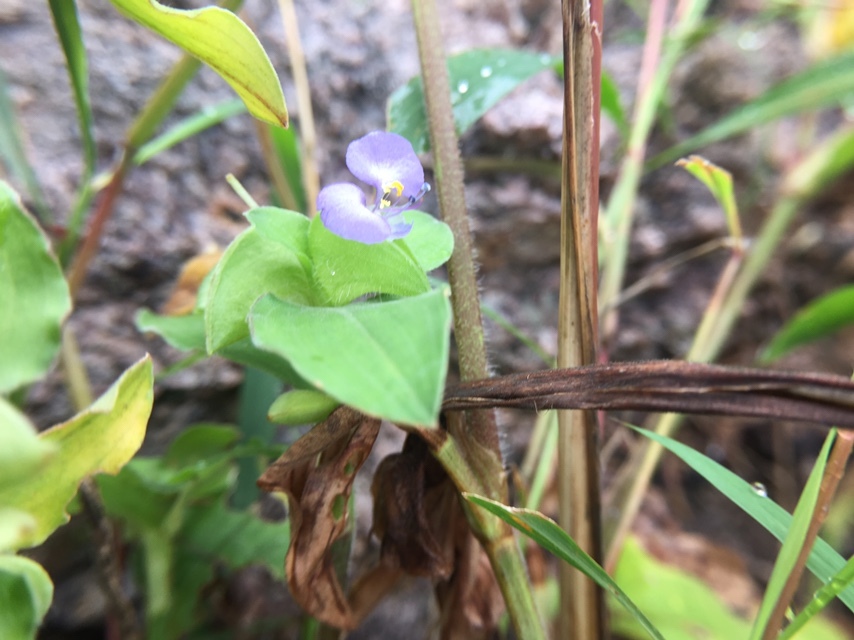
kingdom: Plantae
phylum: Tracheophyta
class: Liliopsida
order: Commelinales
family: Commelinaceae
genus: Commelina
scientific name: Commelina benghalensis
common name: Jio
